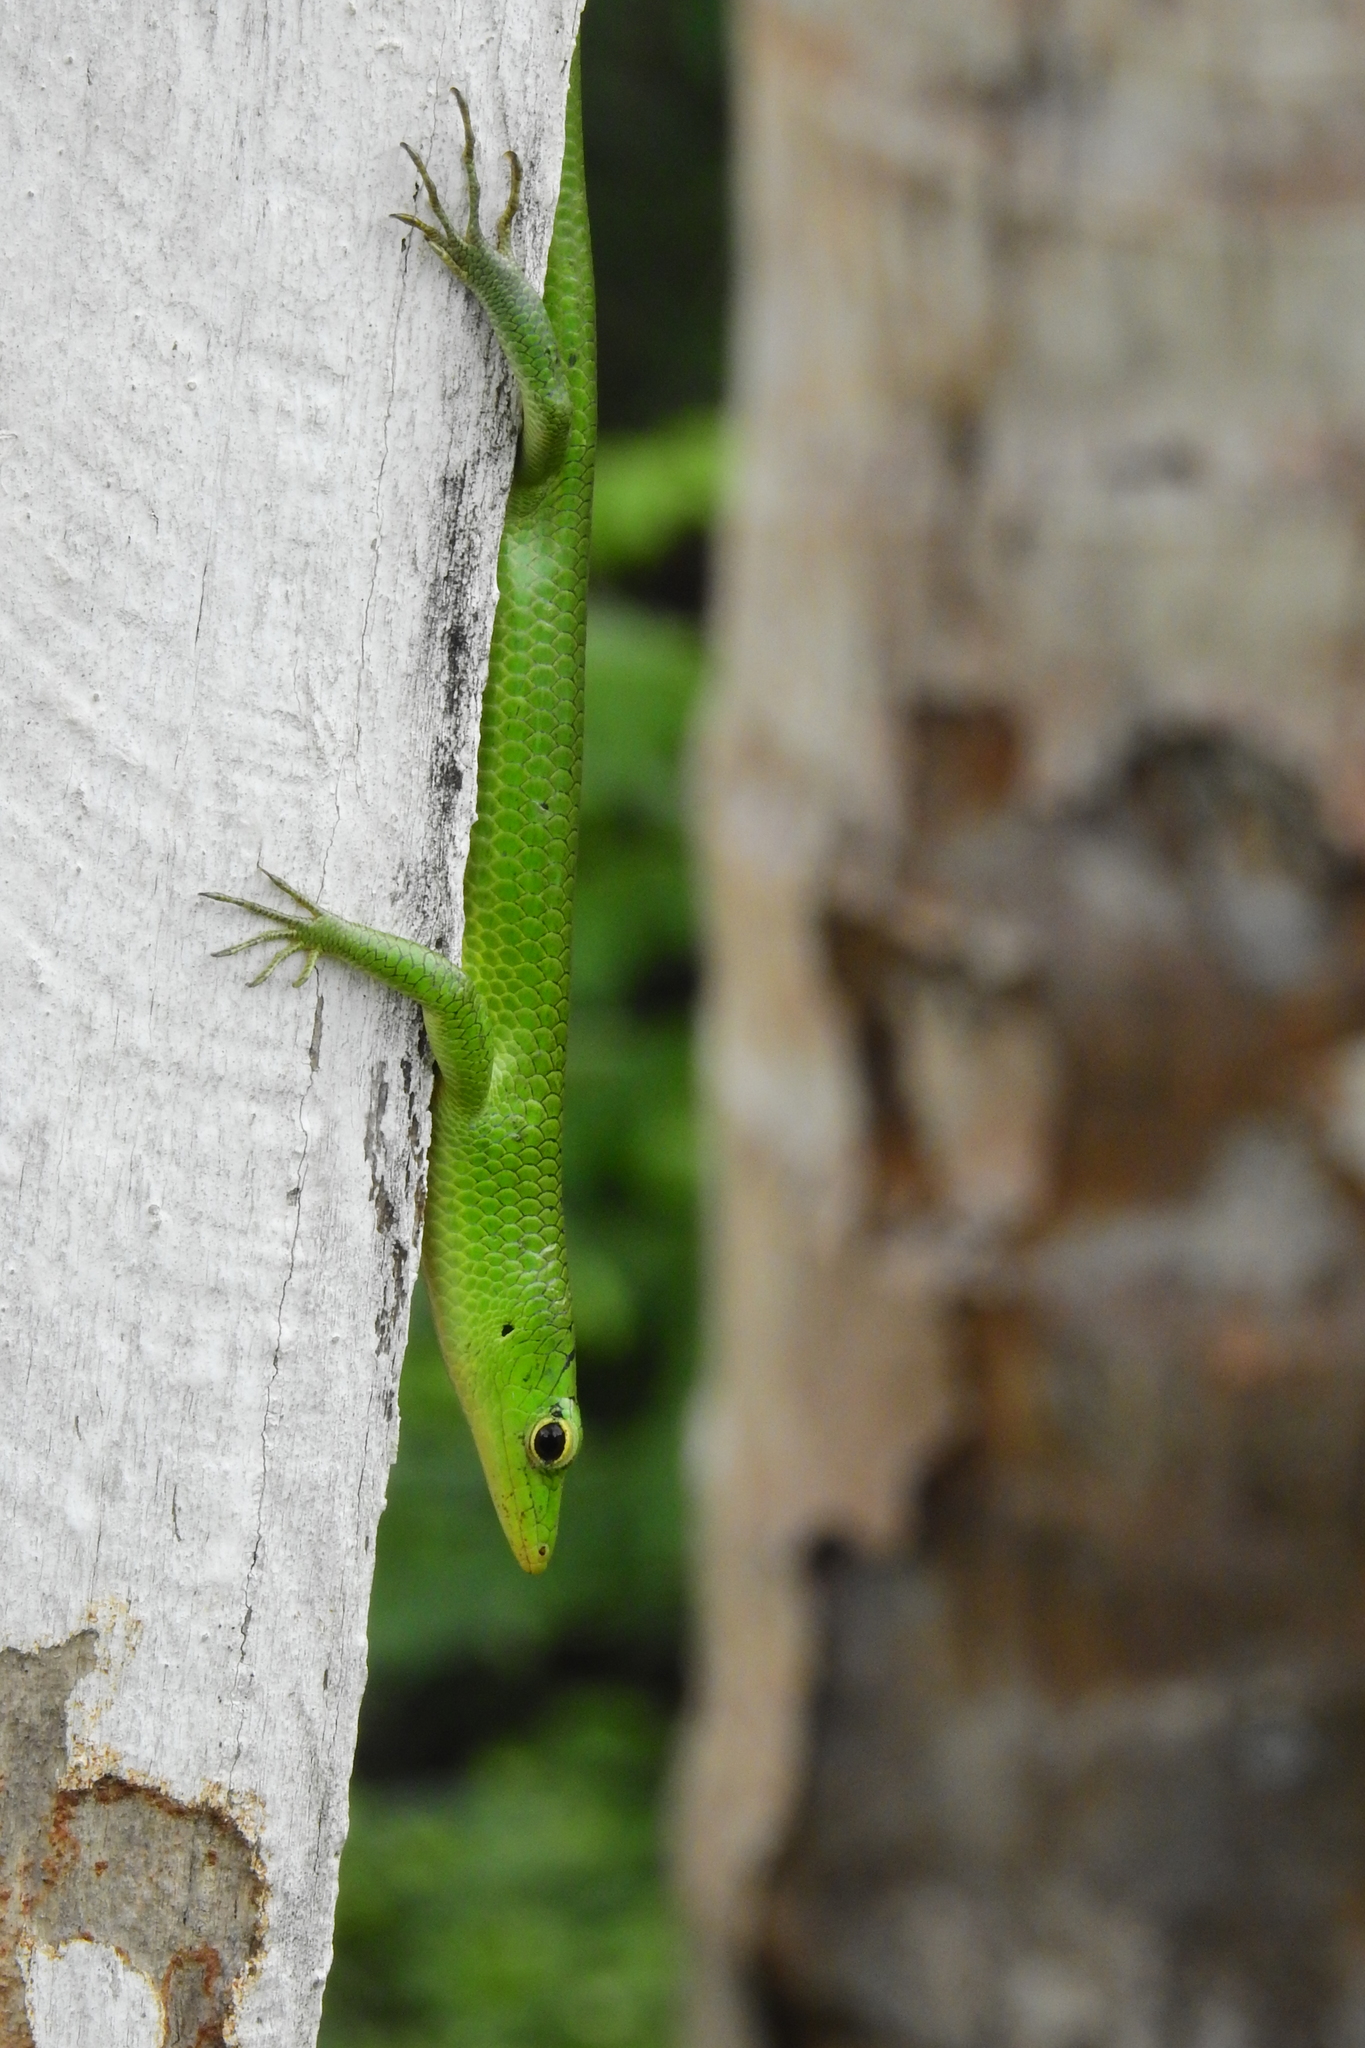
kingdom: Animalia
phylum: Chordata
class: Squamata
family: Scincidae
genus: Lamprolepis
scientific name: Lamprolepis smaragdina
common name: Emerald skink
